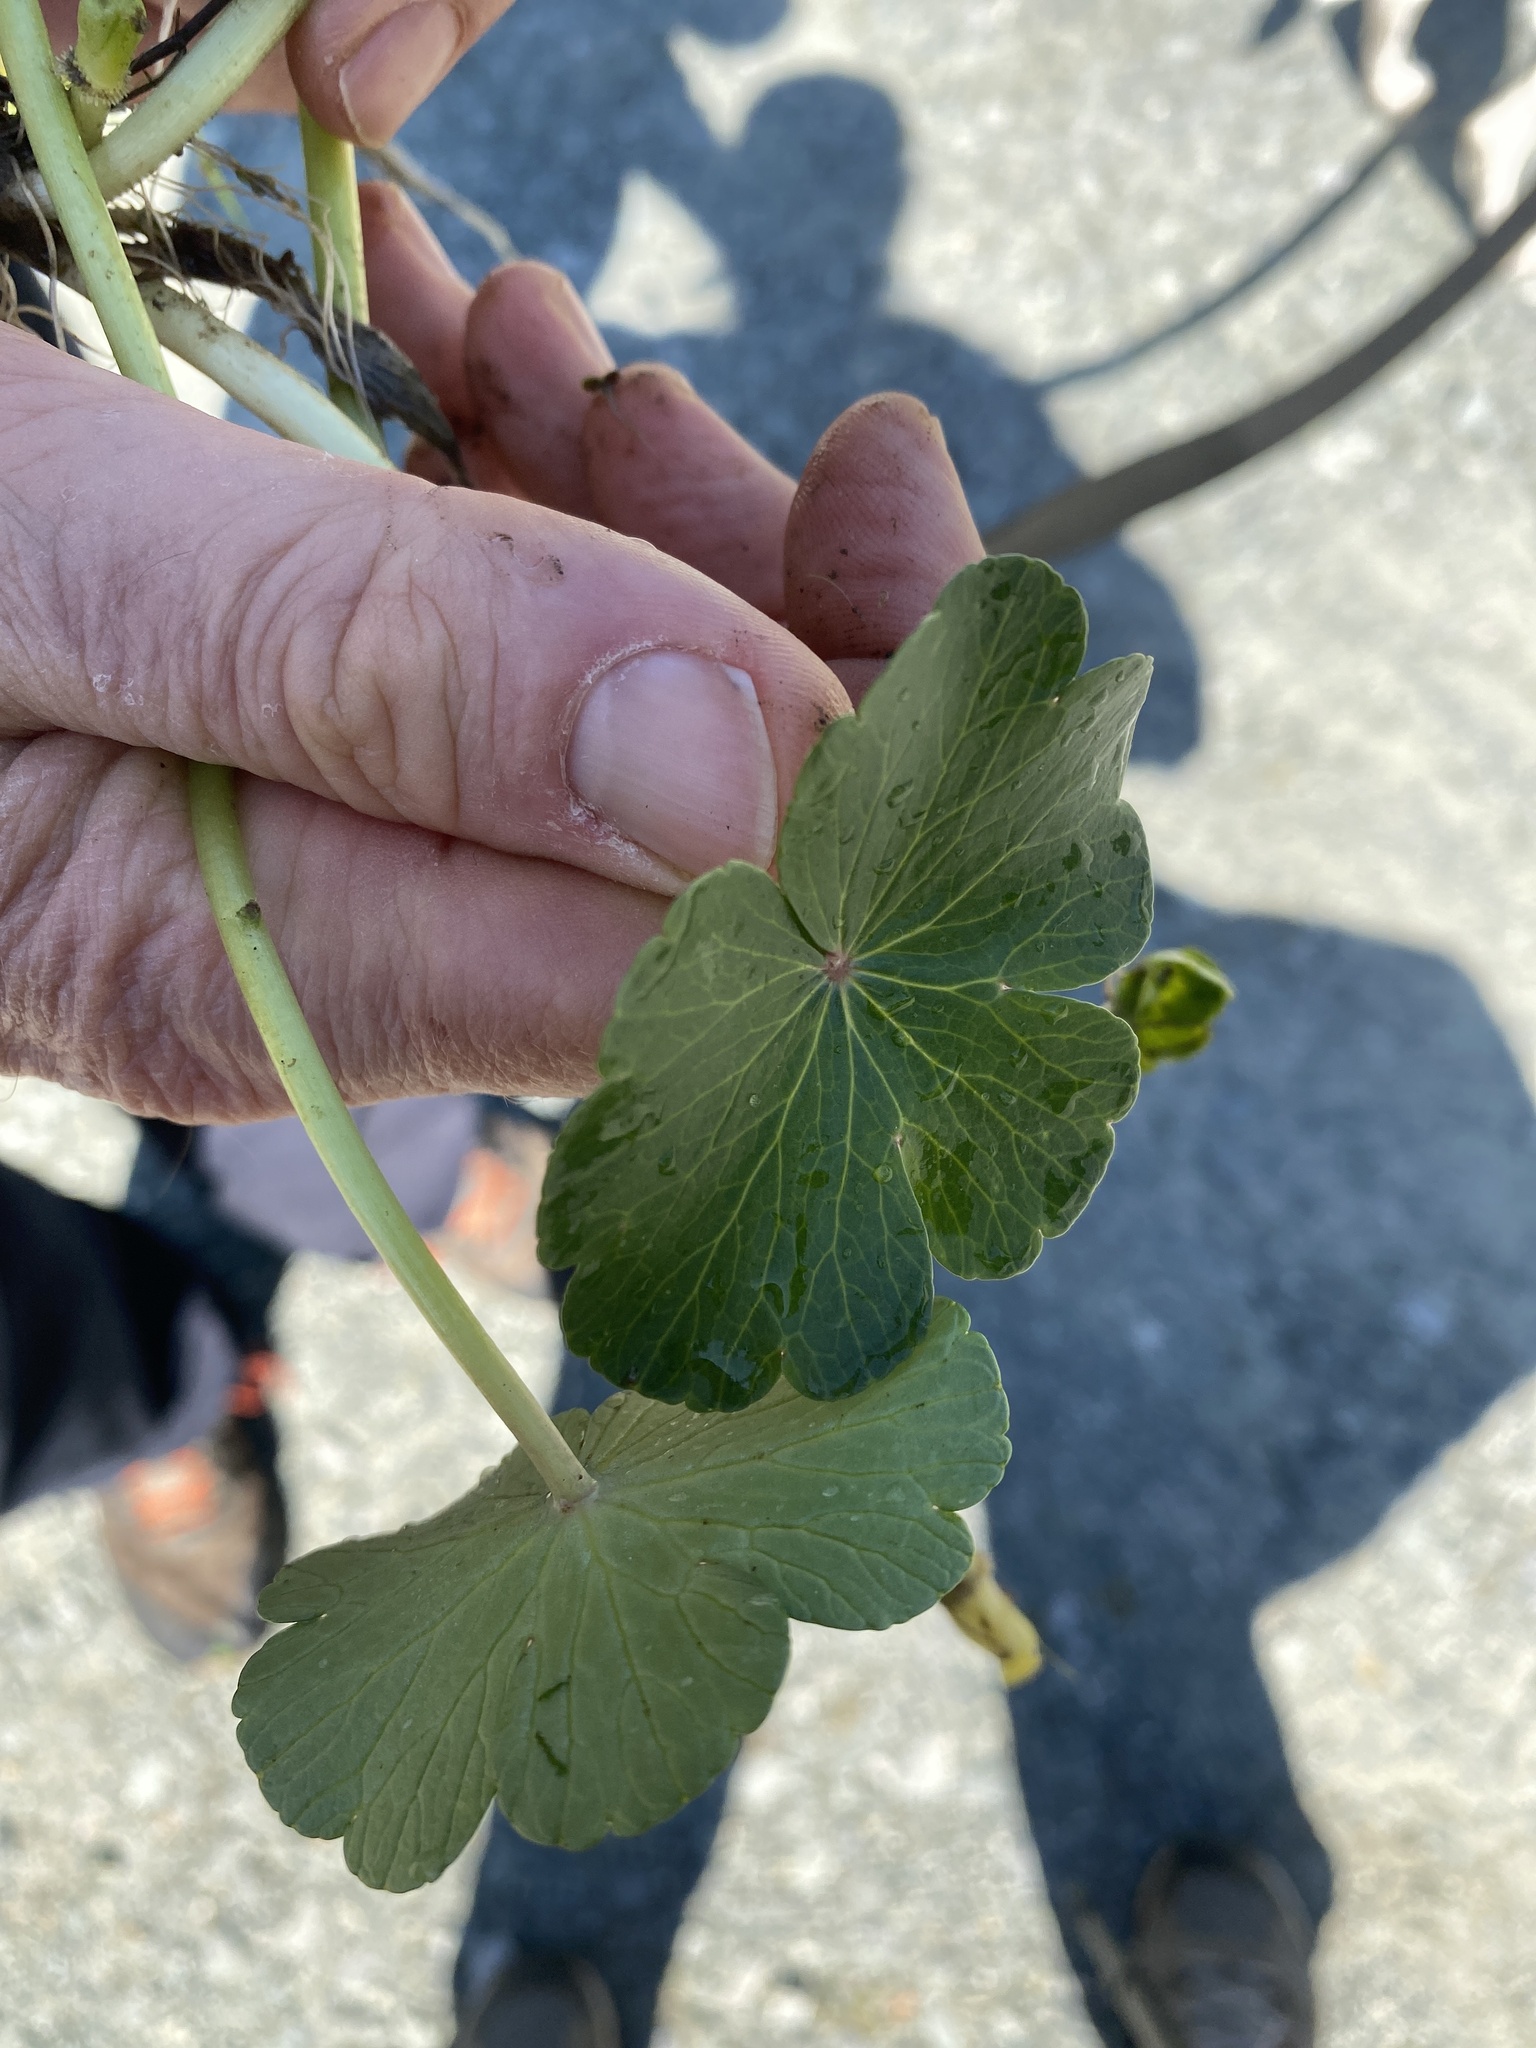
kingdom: Plantae
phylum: Tracheophyta
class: Magnoliopsida
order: Apiales
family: Araliaceae
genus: Hydrocotyle
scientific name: Hydrocotyle ranunculoides
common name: Floating pennywort
